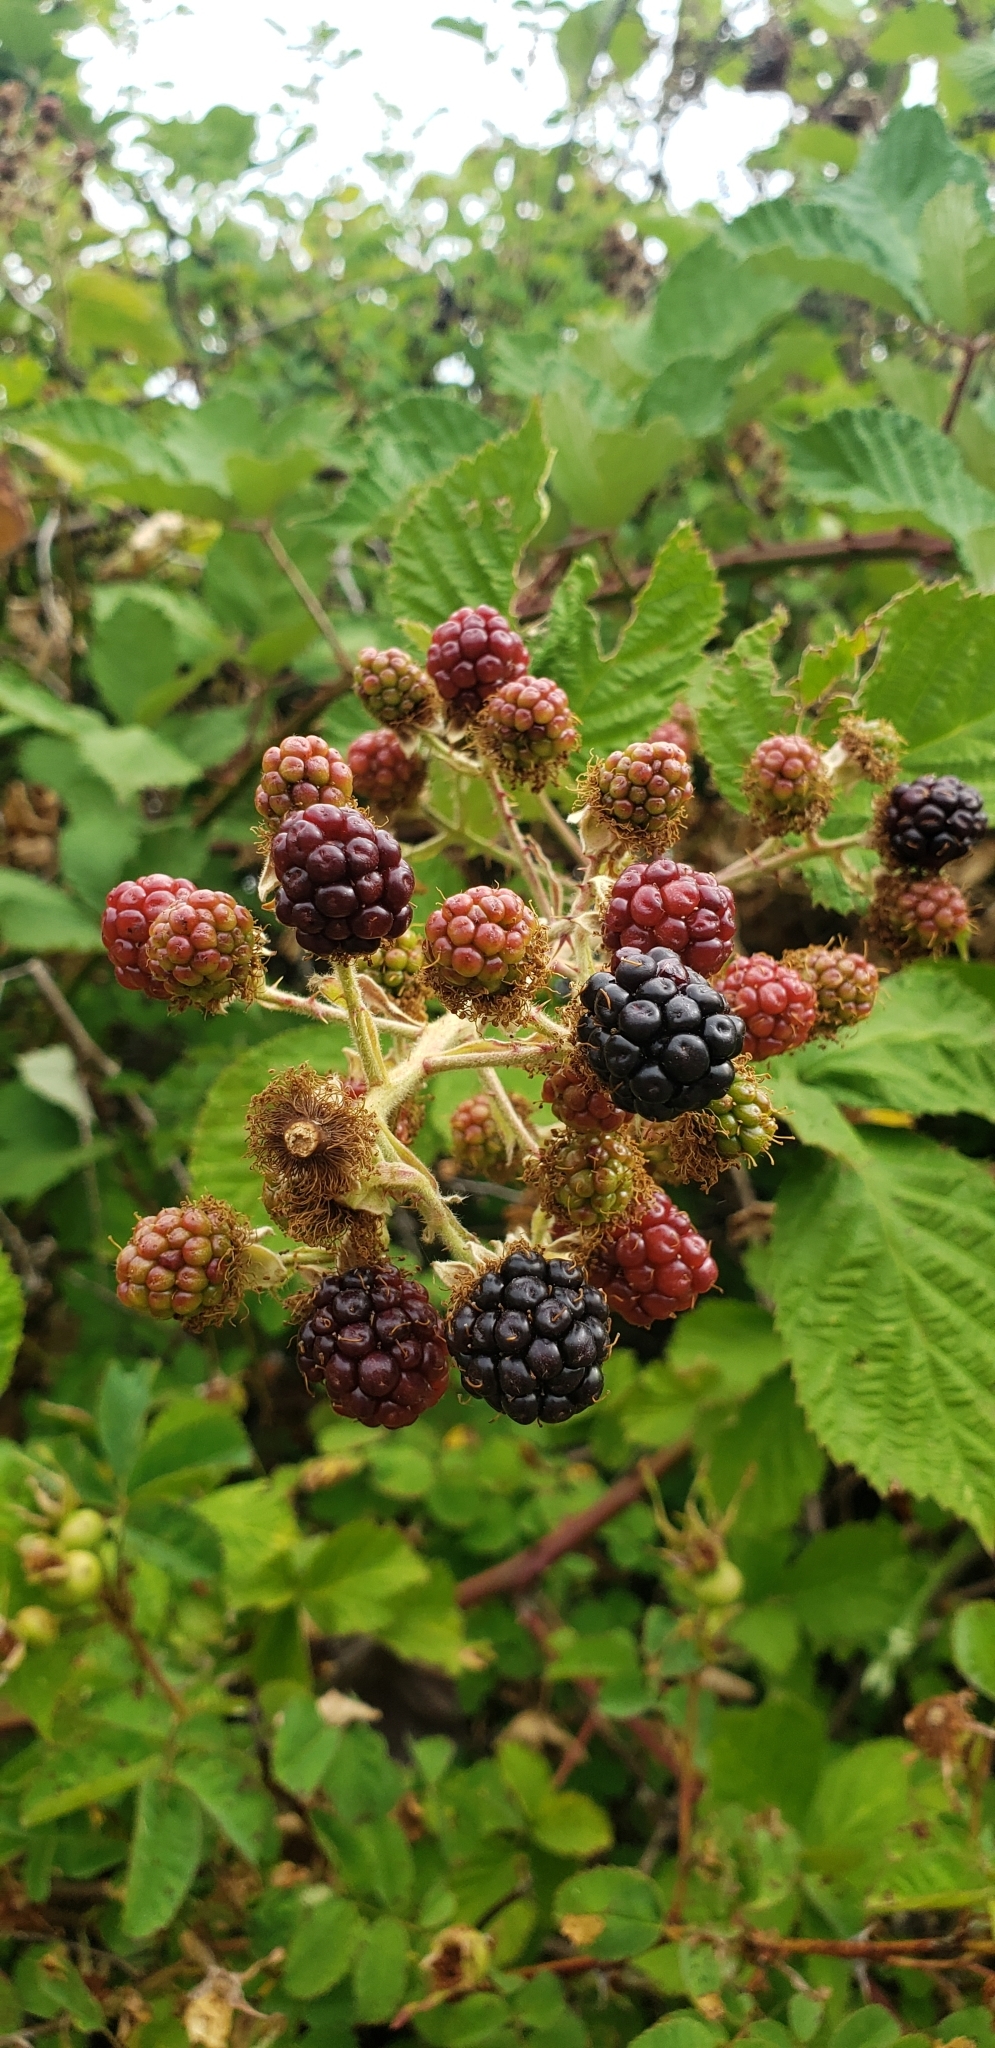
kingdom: Plantae
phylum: Tracheophyta
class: Magnoliopsida
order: Rosales
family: Rosaceae
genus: Rubus
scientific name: Rubus armeniacus
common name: Himalayan blackberry
